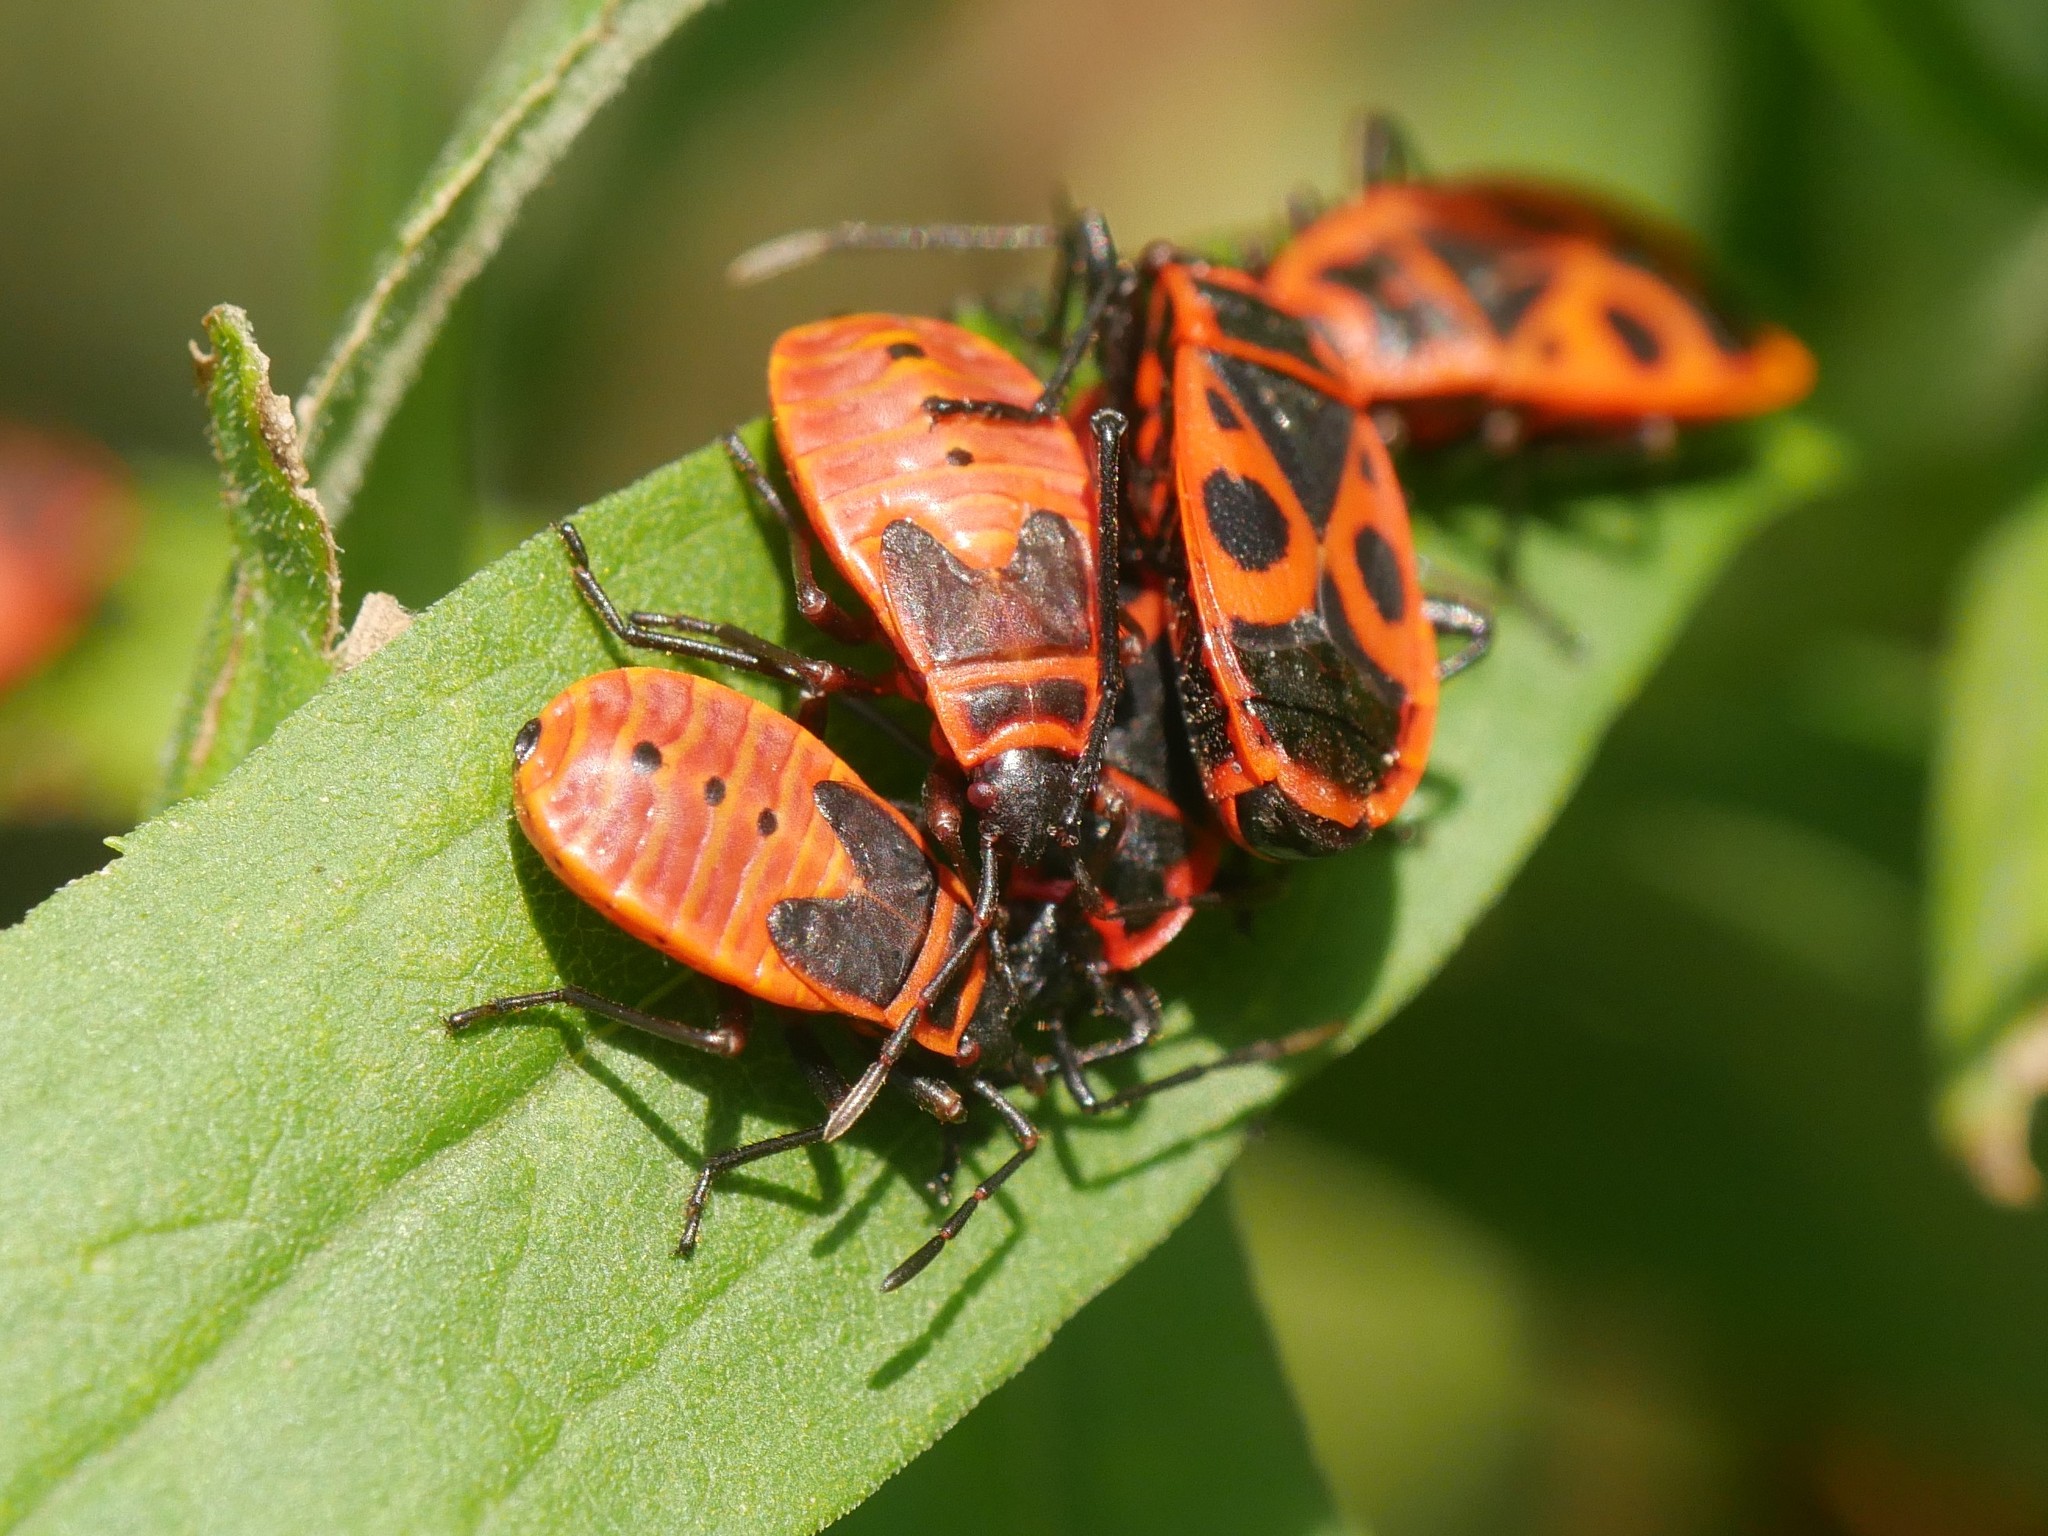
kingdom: Animalia
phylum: Arthropoda
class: Insecta
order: Hemiptera
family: Pyrrhocoridae
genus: Pyrrhocoris
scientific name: Pyrrhocoris apterus
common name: Firebug
